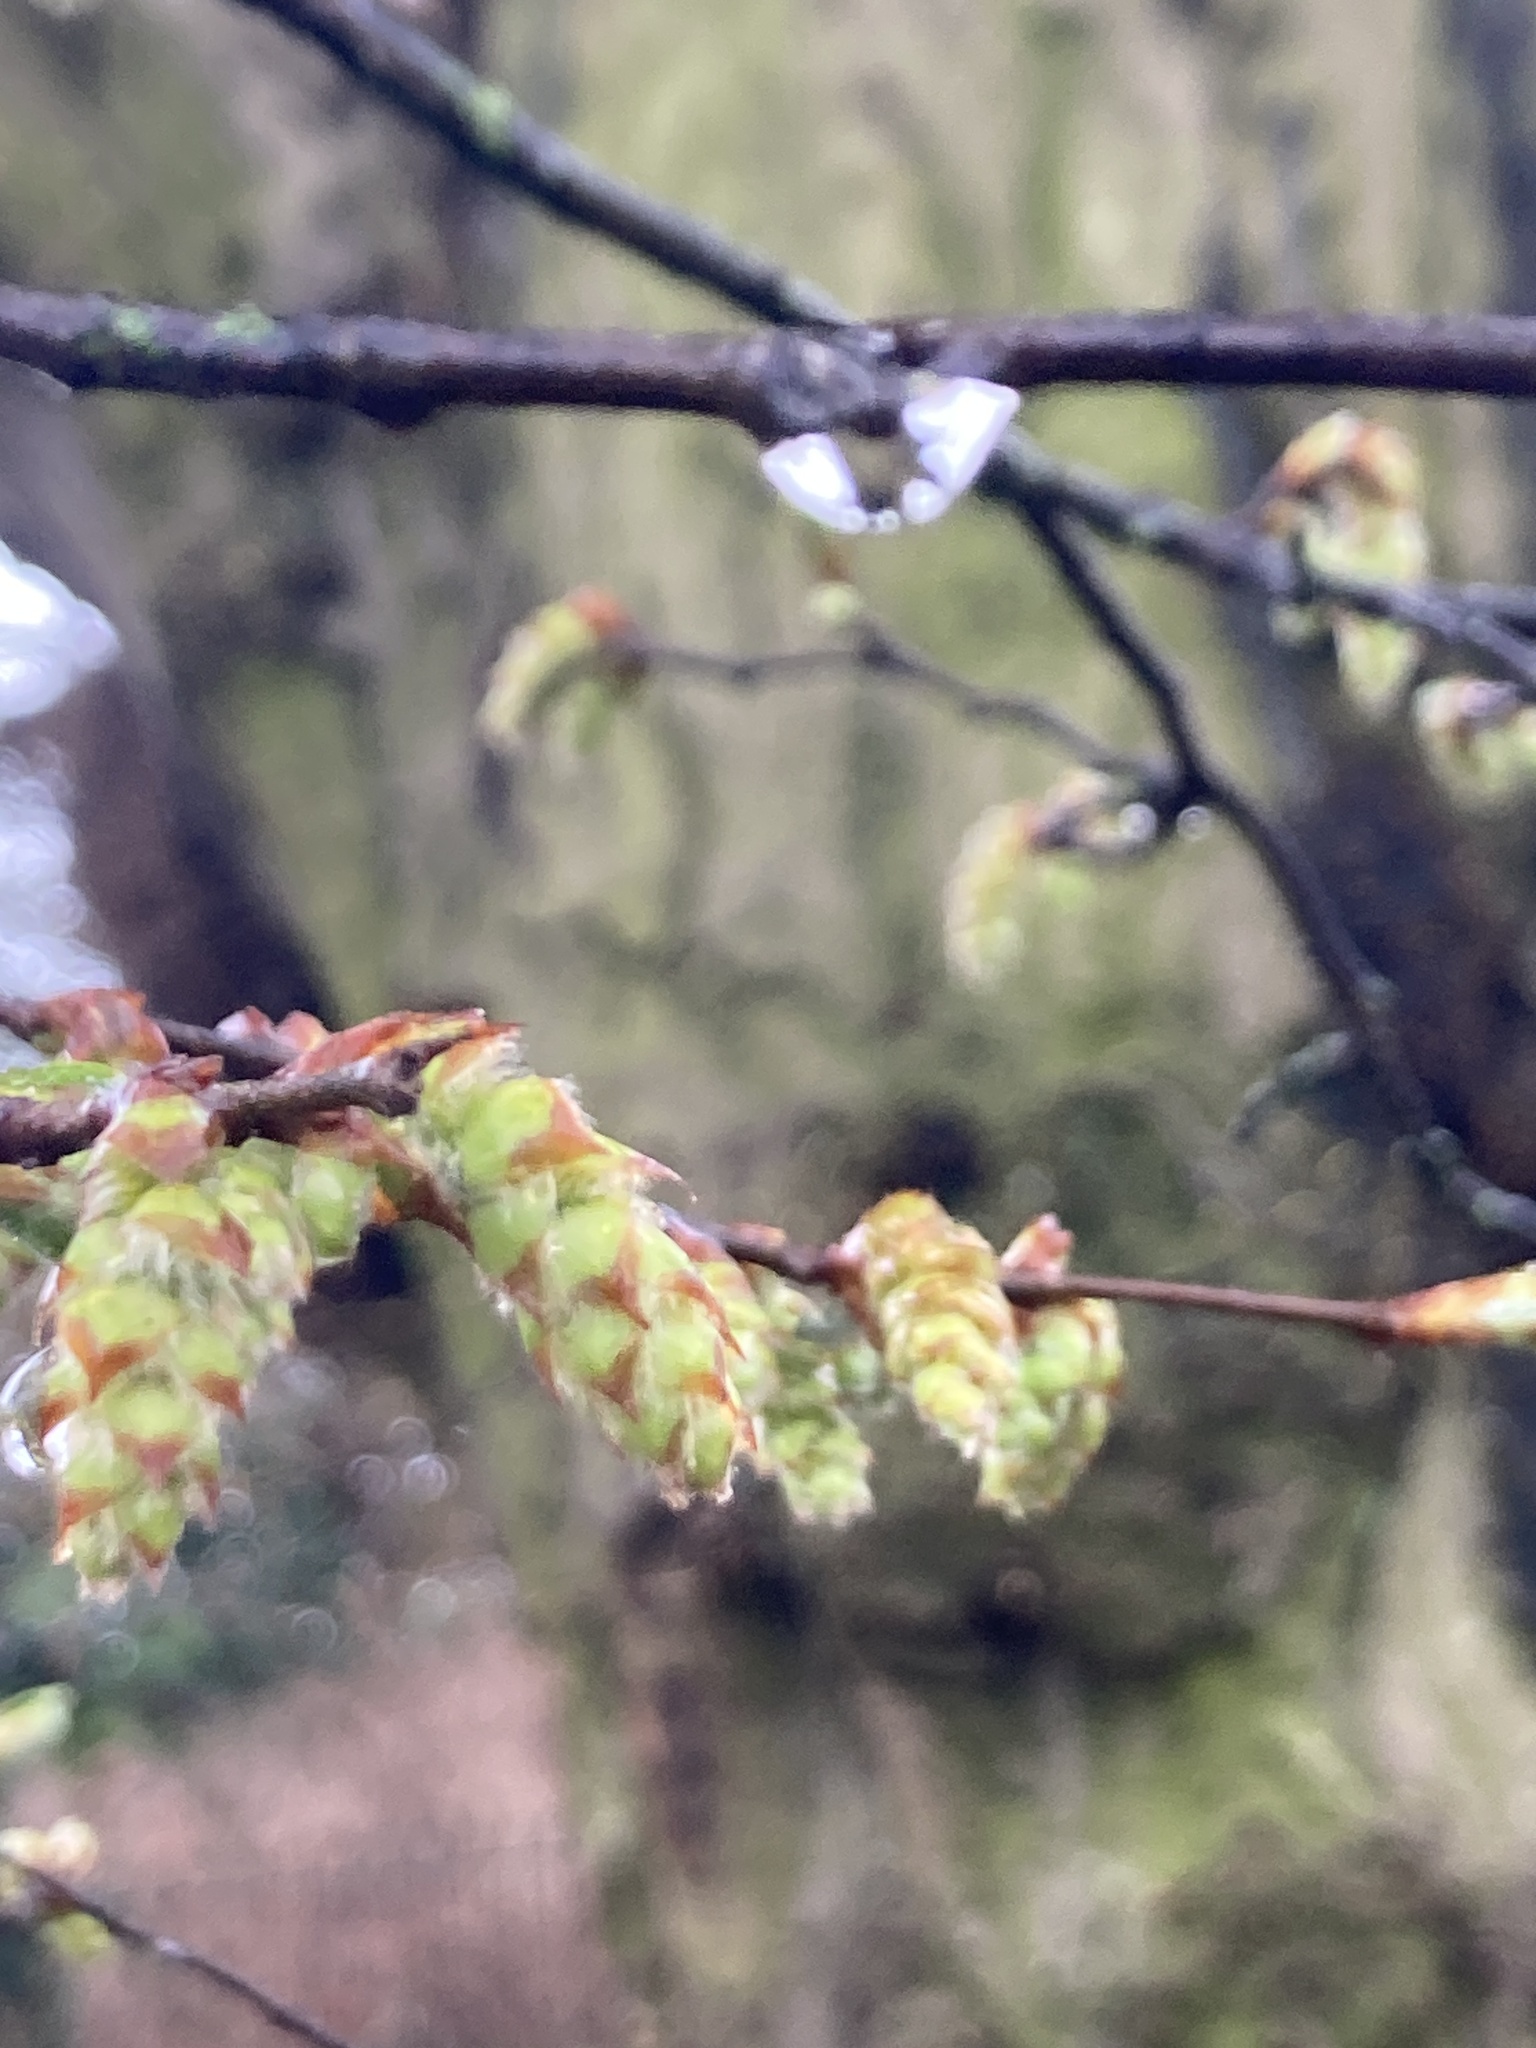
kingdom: Plantae
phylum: Tracheophyta
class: Magnoliopsida
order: Fagales
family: Betulaceae
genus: Carpinus
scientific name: Carpinus betulus
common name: Hornbeam
